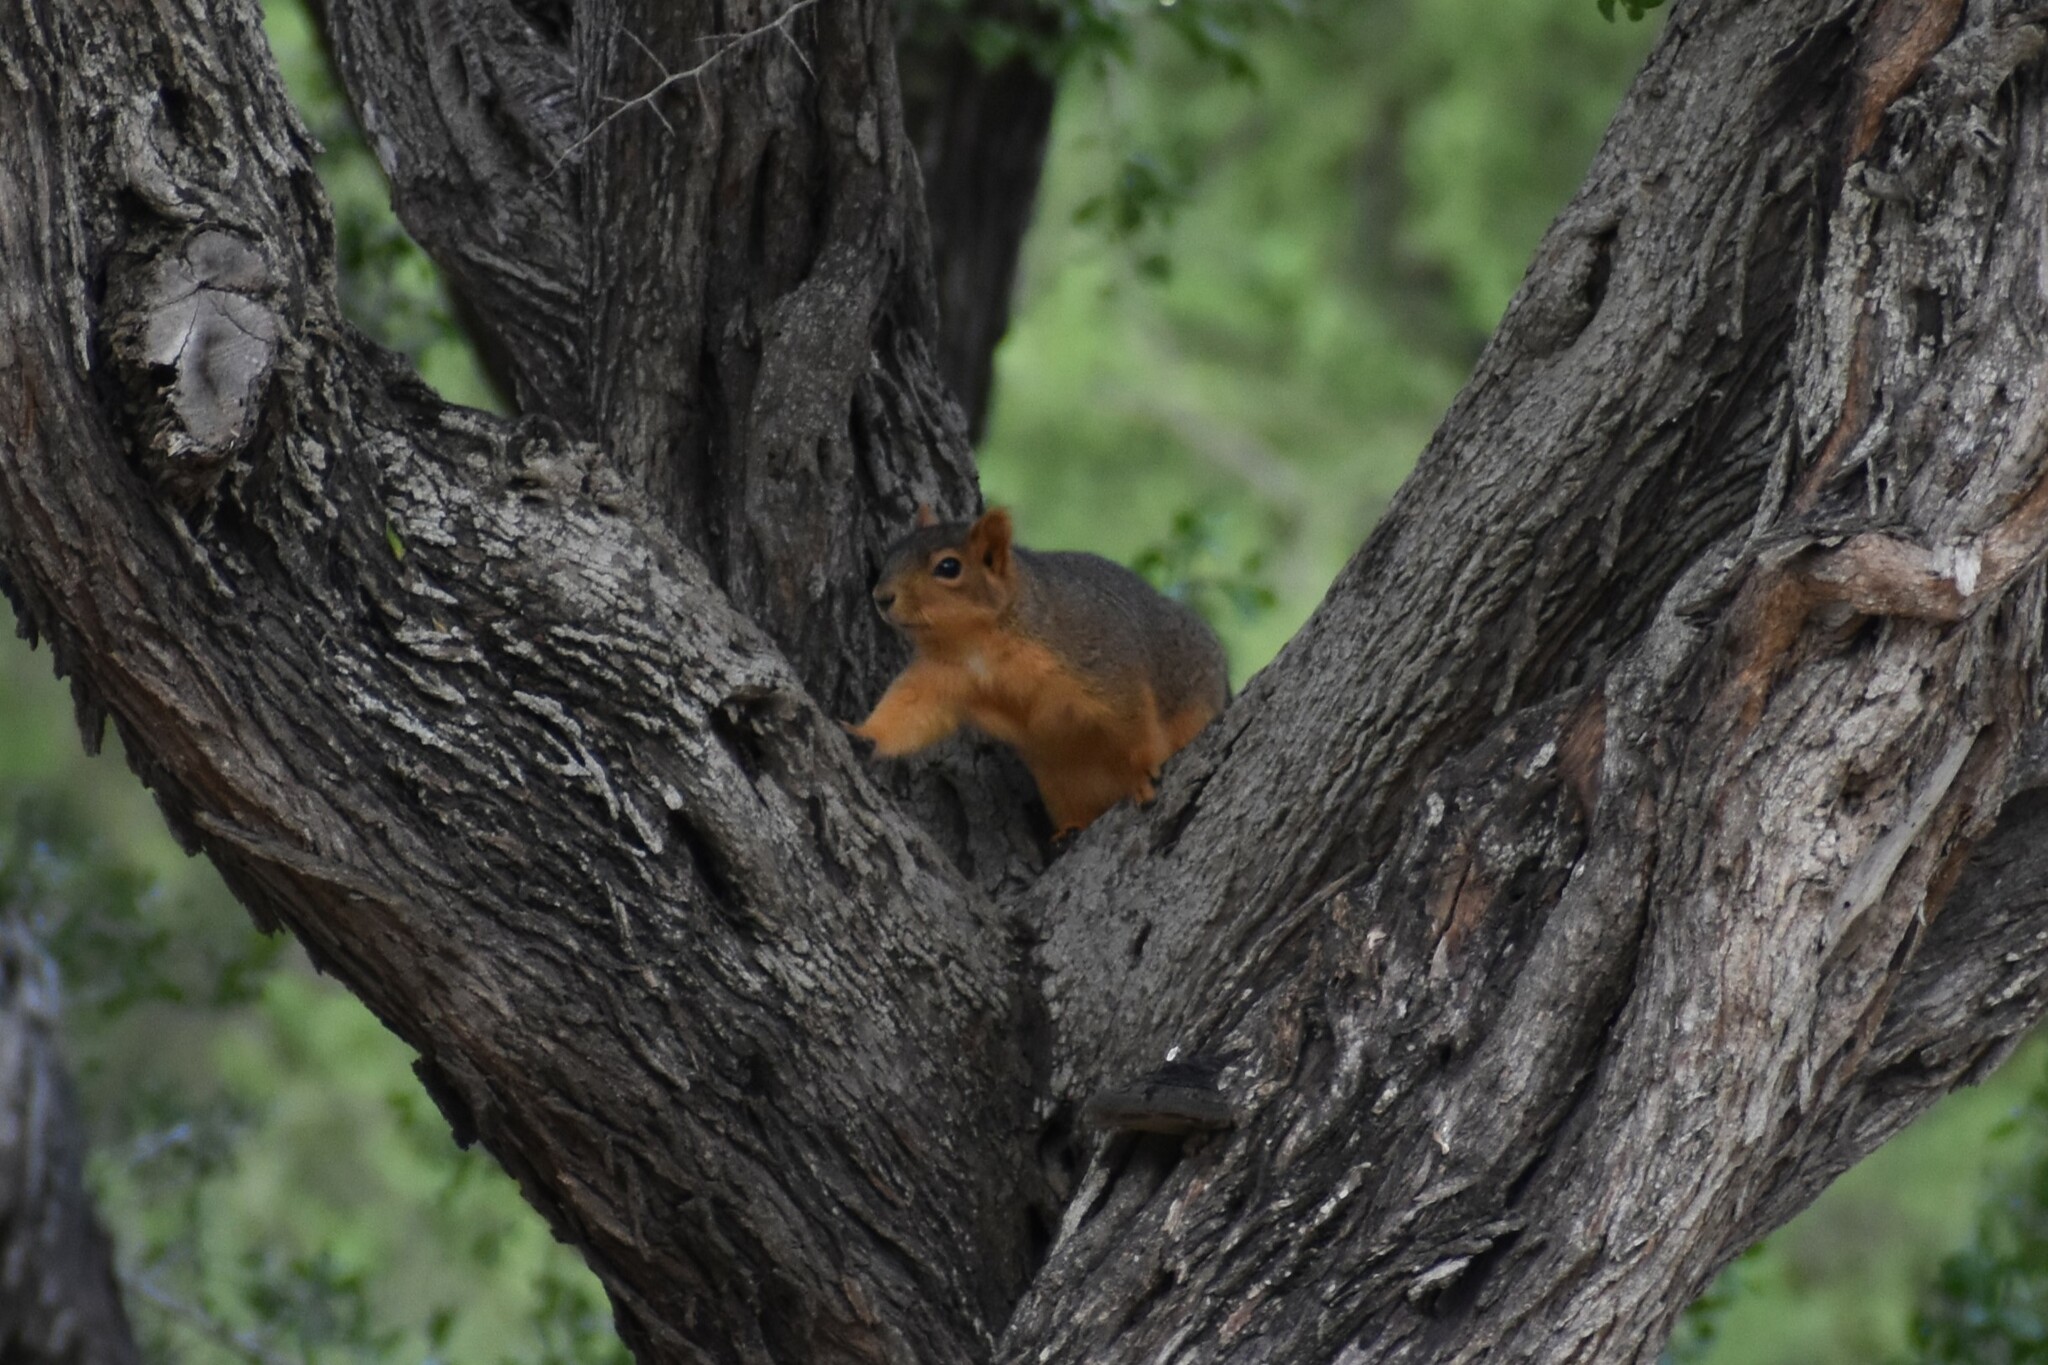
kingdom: Animalia
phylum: Chordata
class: Mammalia
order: Rodentia
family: Sciuridae
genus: Sciurus
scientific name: Sciurus niger
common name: Fox squirrel
